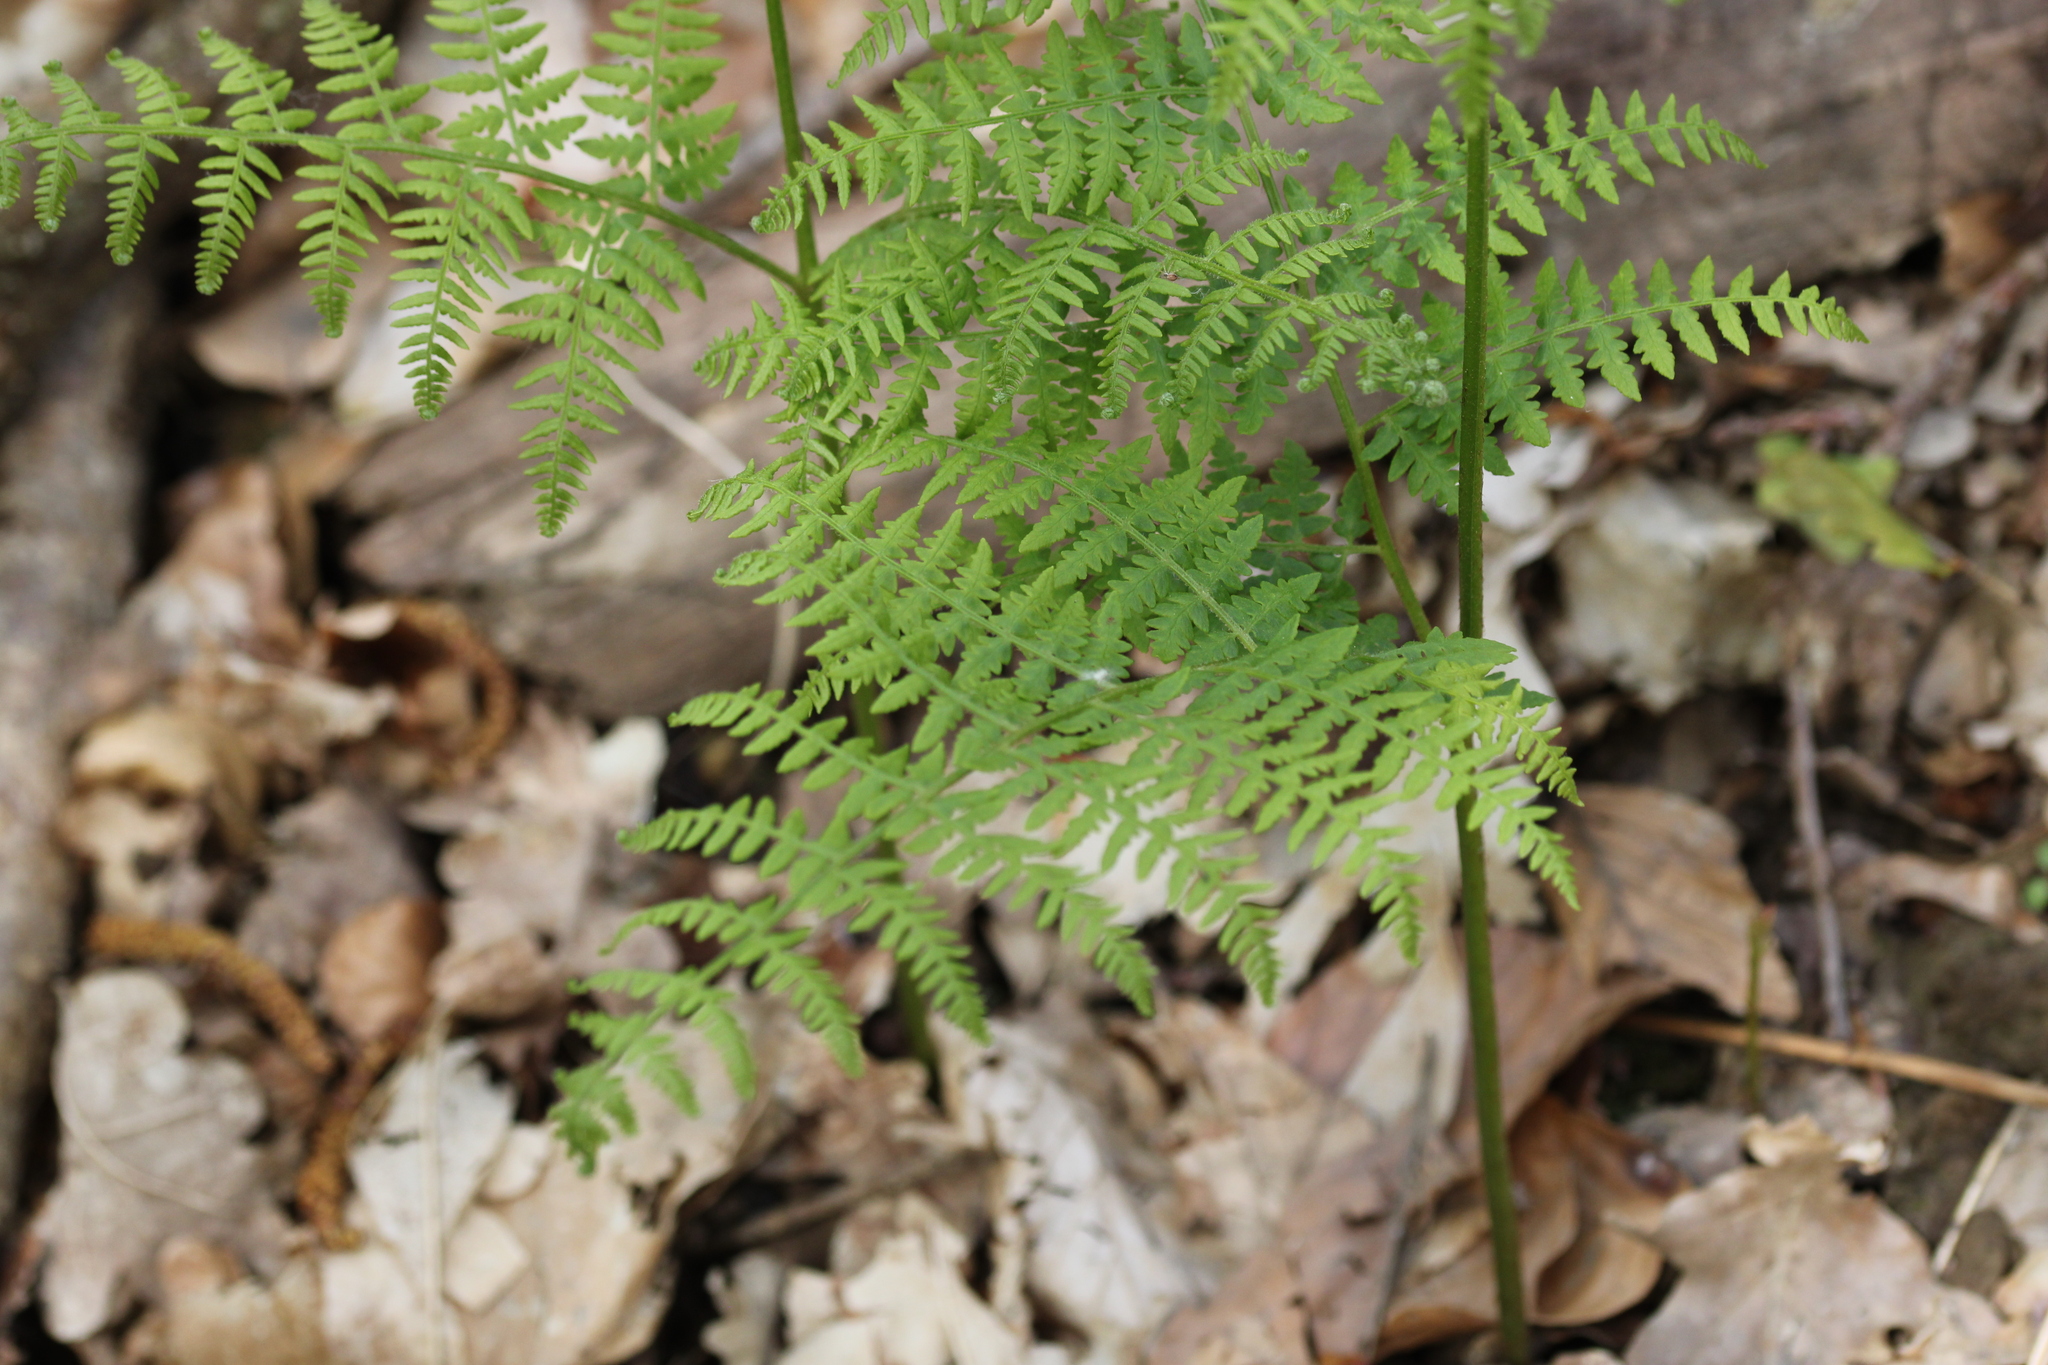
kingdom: Plantae
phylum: Tracheophyta
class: Polypodiopsida
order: Polypodiales
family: Dennstaedtiaceae
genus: Pteridium
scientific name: Pteridium aquilinum
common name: Bracken
